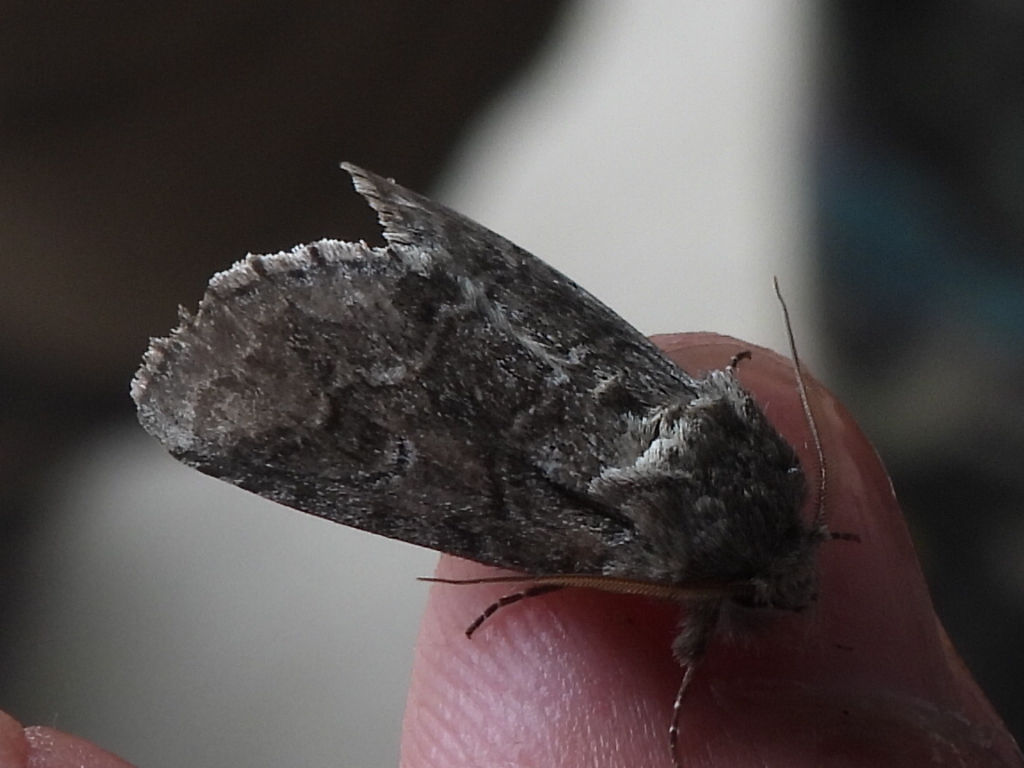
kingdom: Animalia
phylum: Arthropoda
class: Insecta
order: Lepidoptera
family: Notodontidae
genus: Lochmaeus
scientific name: Lochmaeus bilineata
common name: Double-lined prominent
